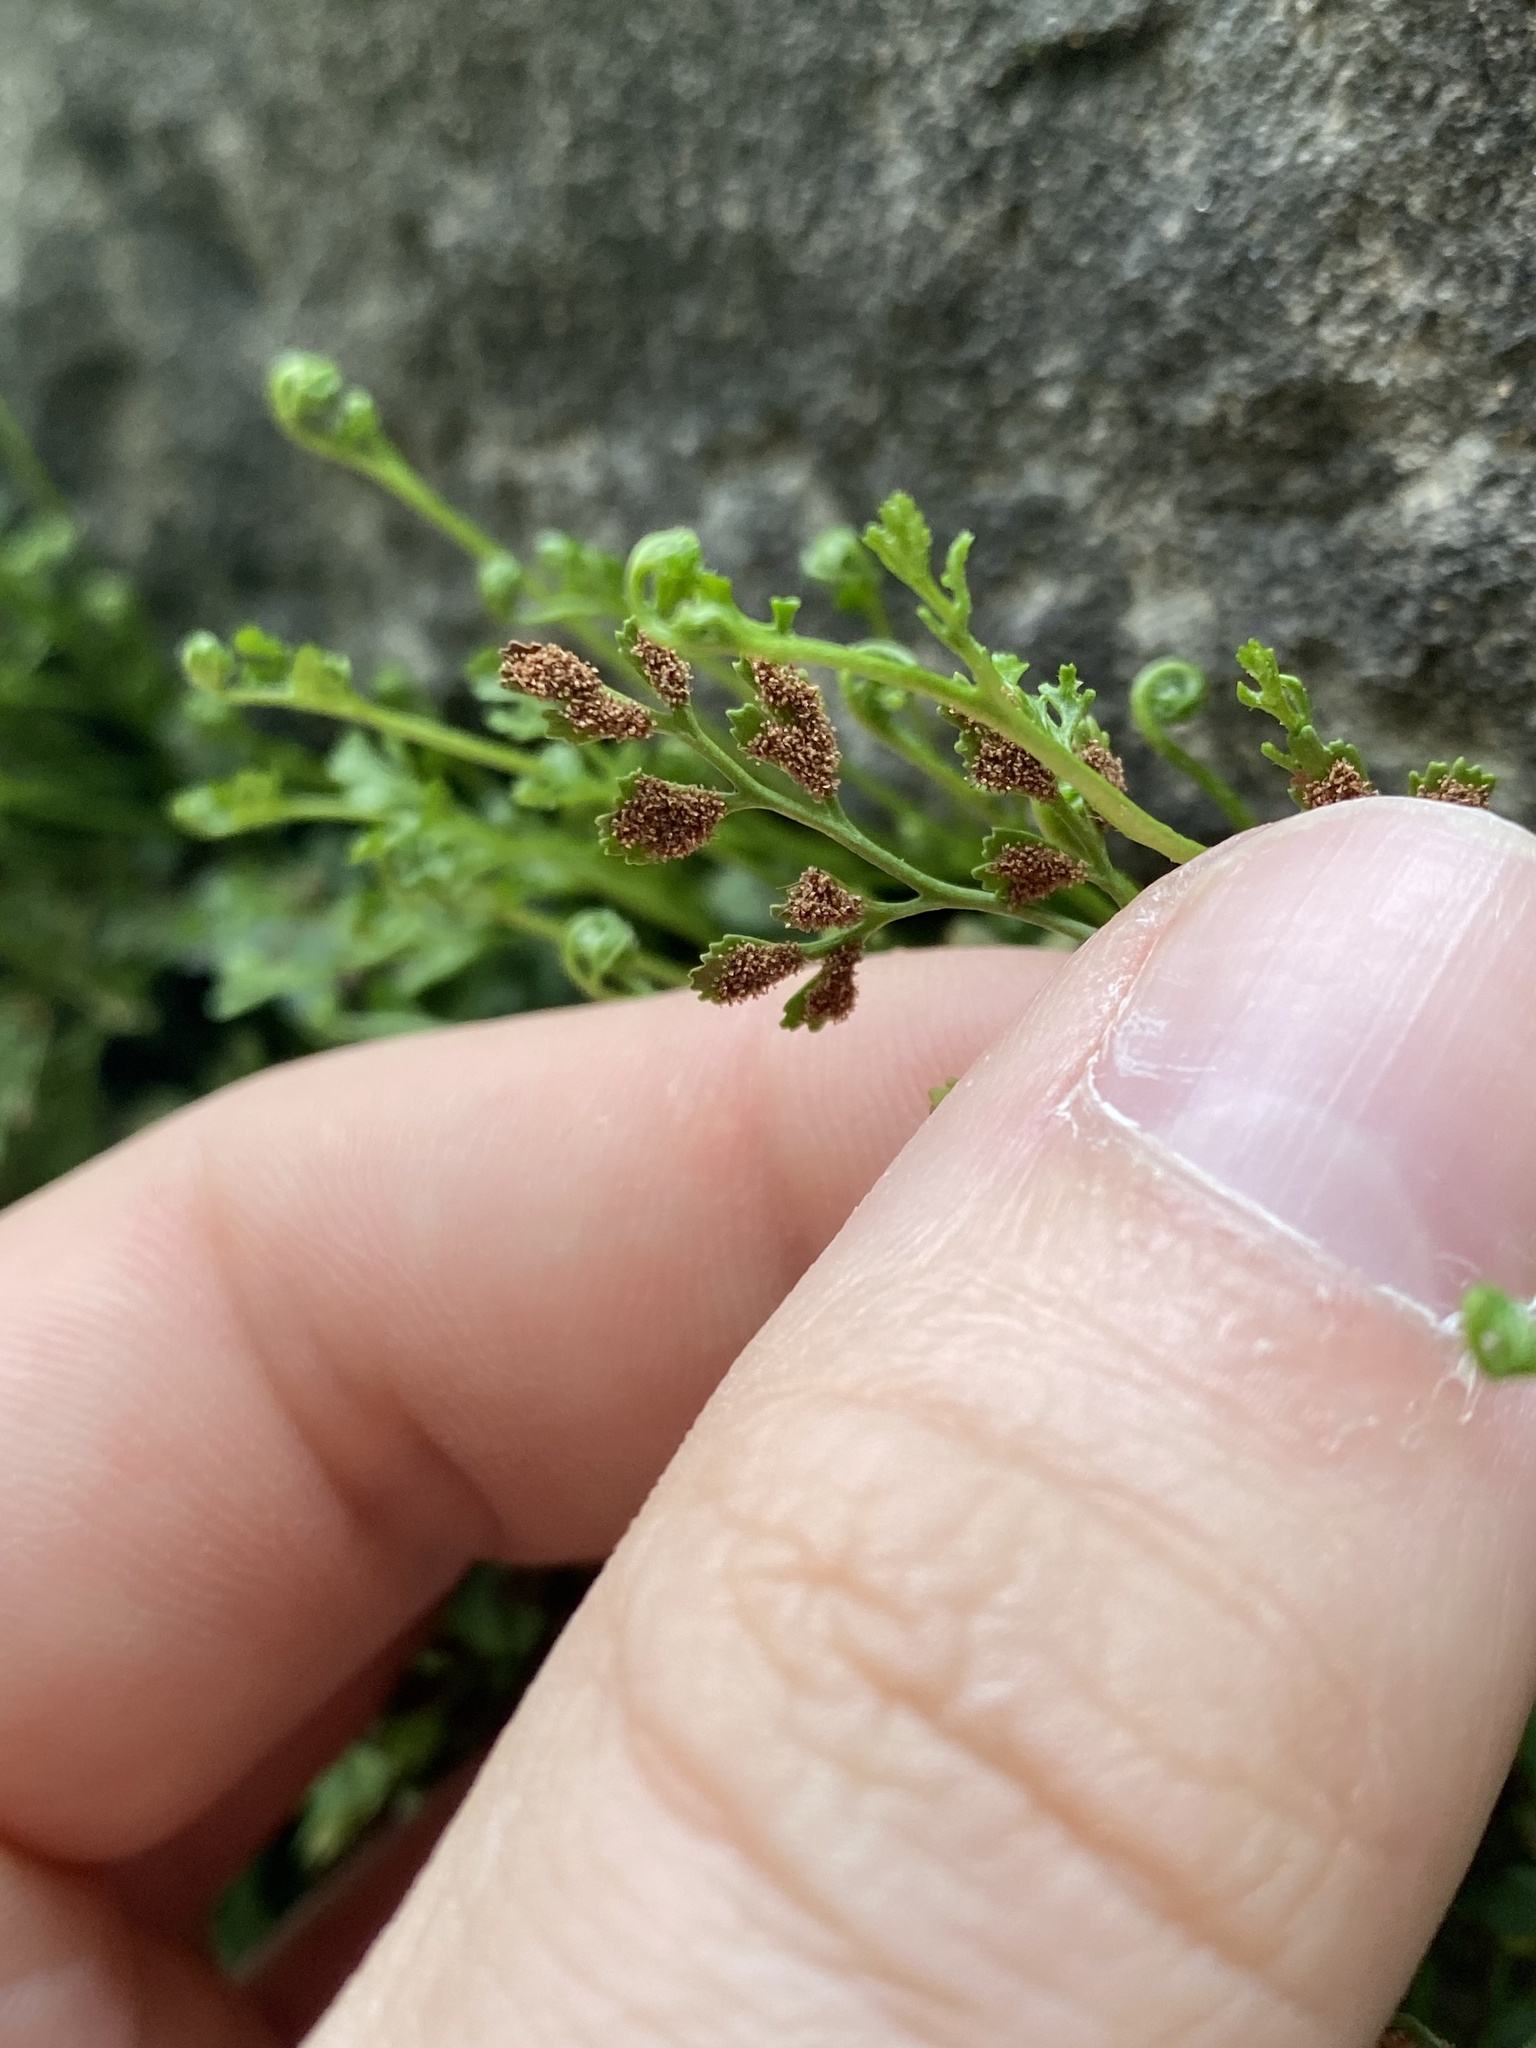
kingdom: Plantae
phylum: Tracheophyta
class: Polypodiopsida
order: Polypodiales
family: Aspleniaceae
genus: Asplenium
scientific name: Asplenium ruta-muraria
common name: Wall-rue
